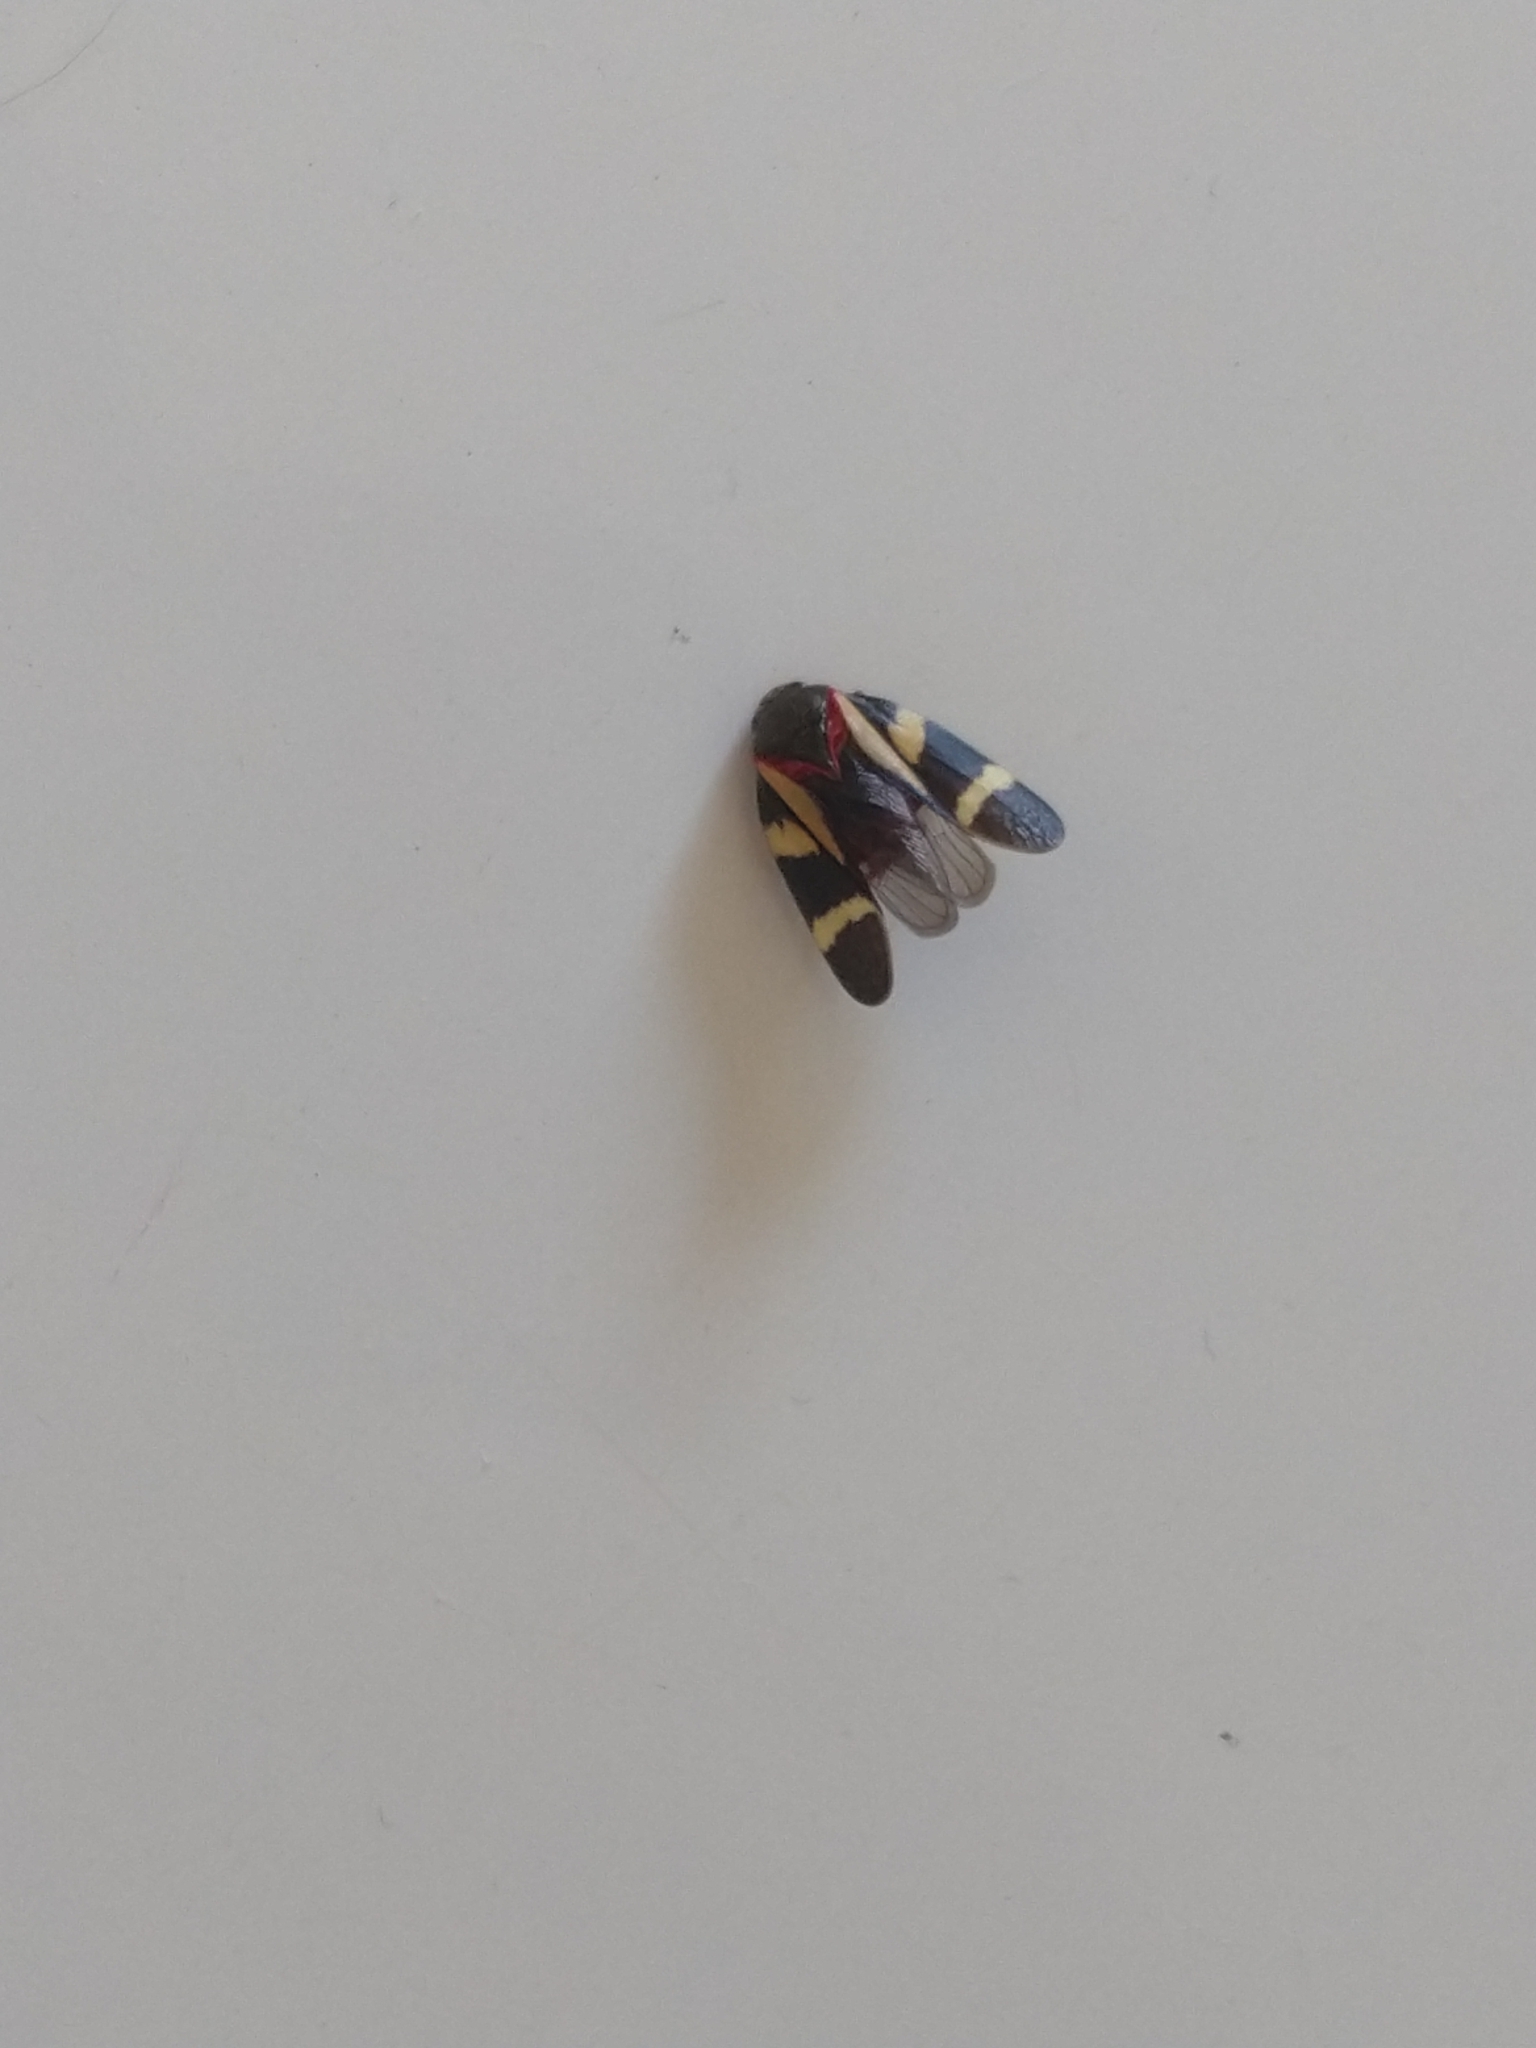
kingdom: Animalia
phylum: Arthropoda
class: Insecta
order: Hemiptera
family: Cercopidae
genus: Deois
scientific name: Deois flavopicta
